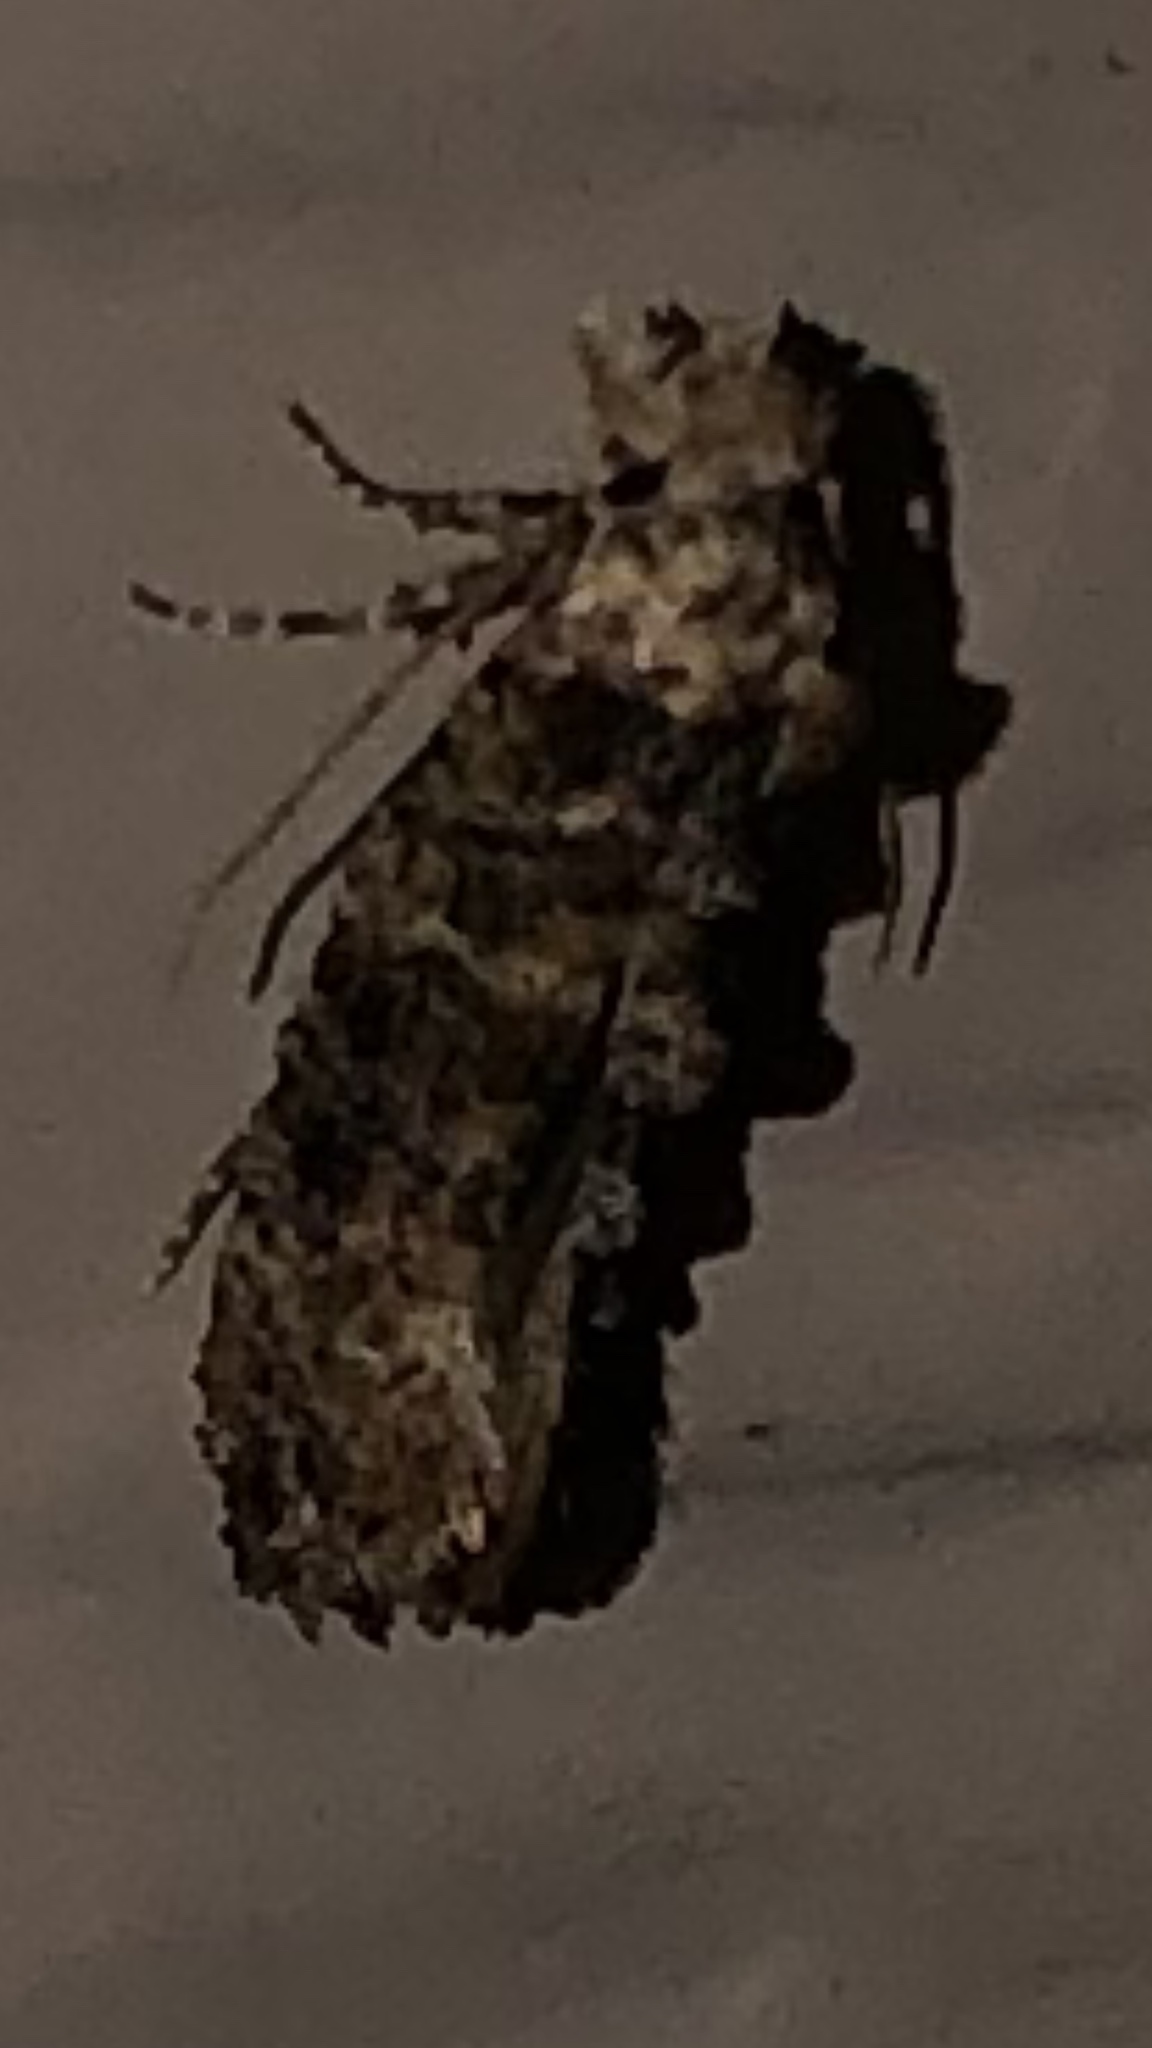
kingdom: Animalia
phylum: Arthropoda
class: Insecta
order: Lepidoptera
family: Tineidae
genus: Xylesthia
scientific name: Xylesthia pruniramiella
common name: Clemens' bark moth
